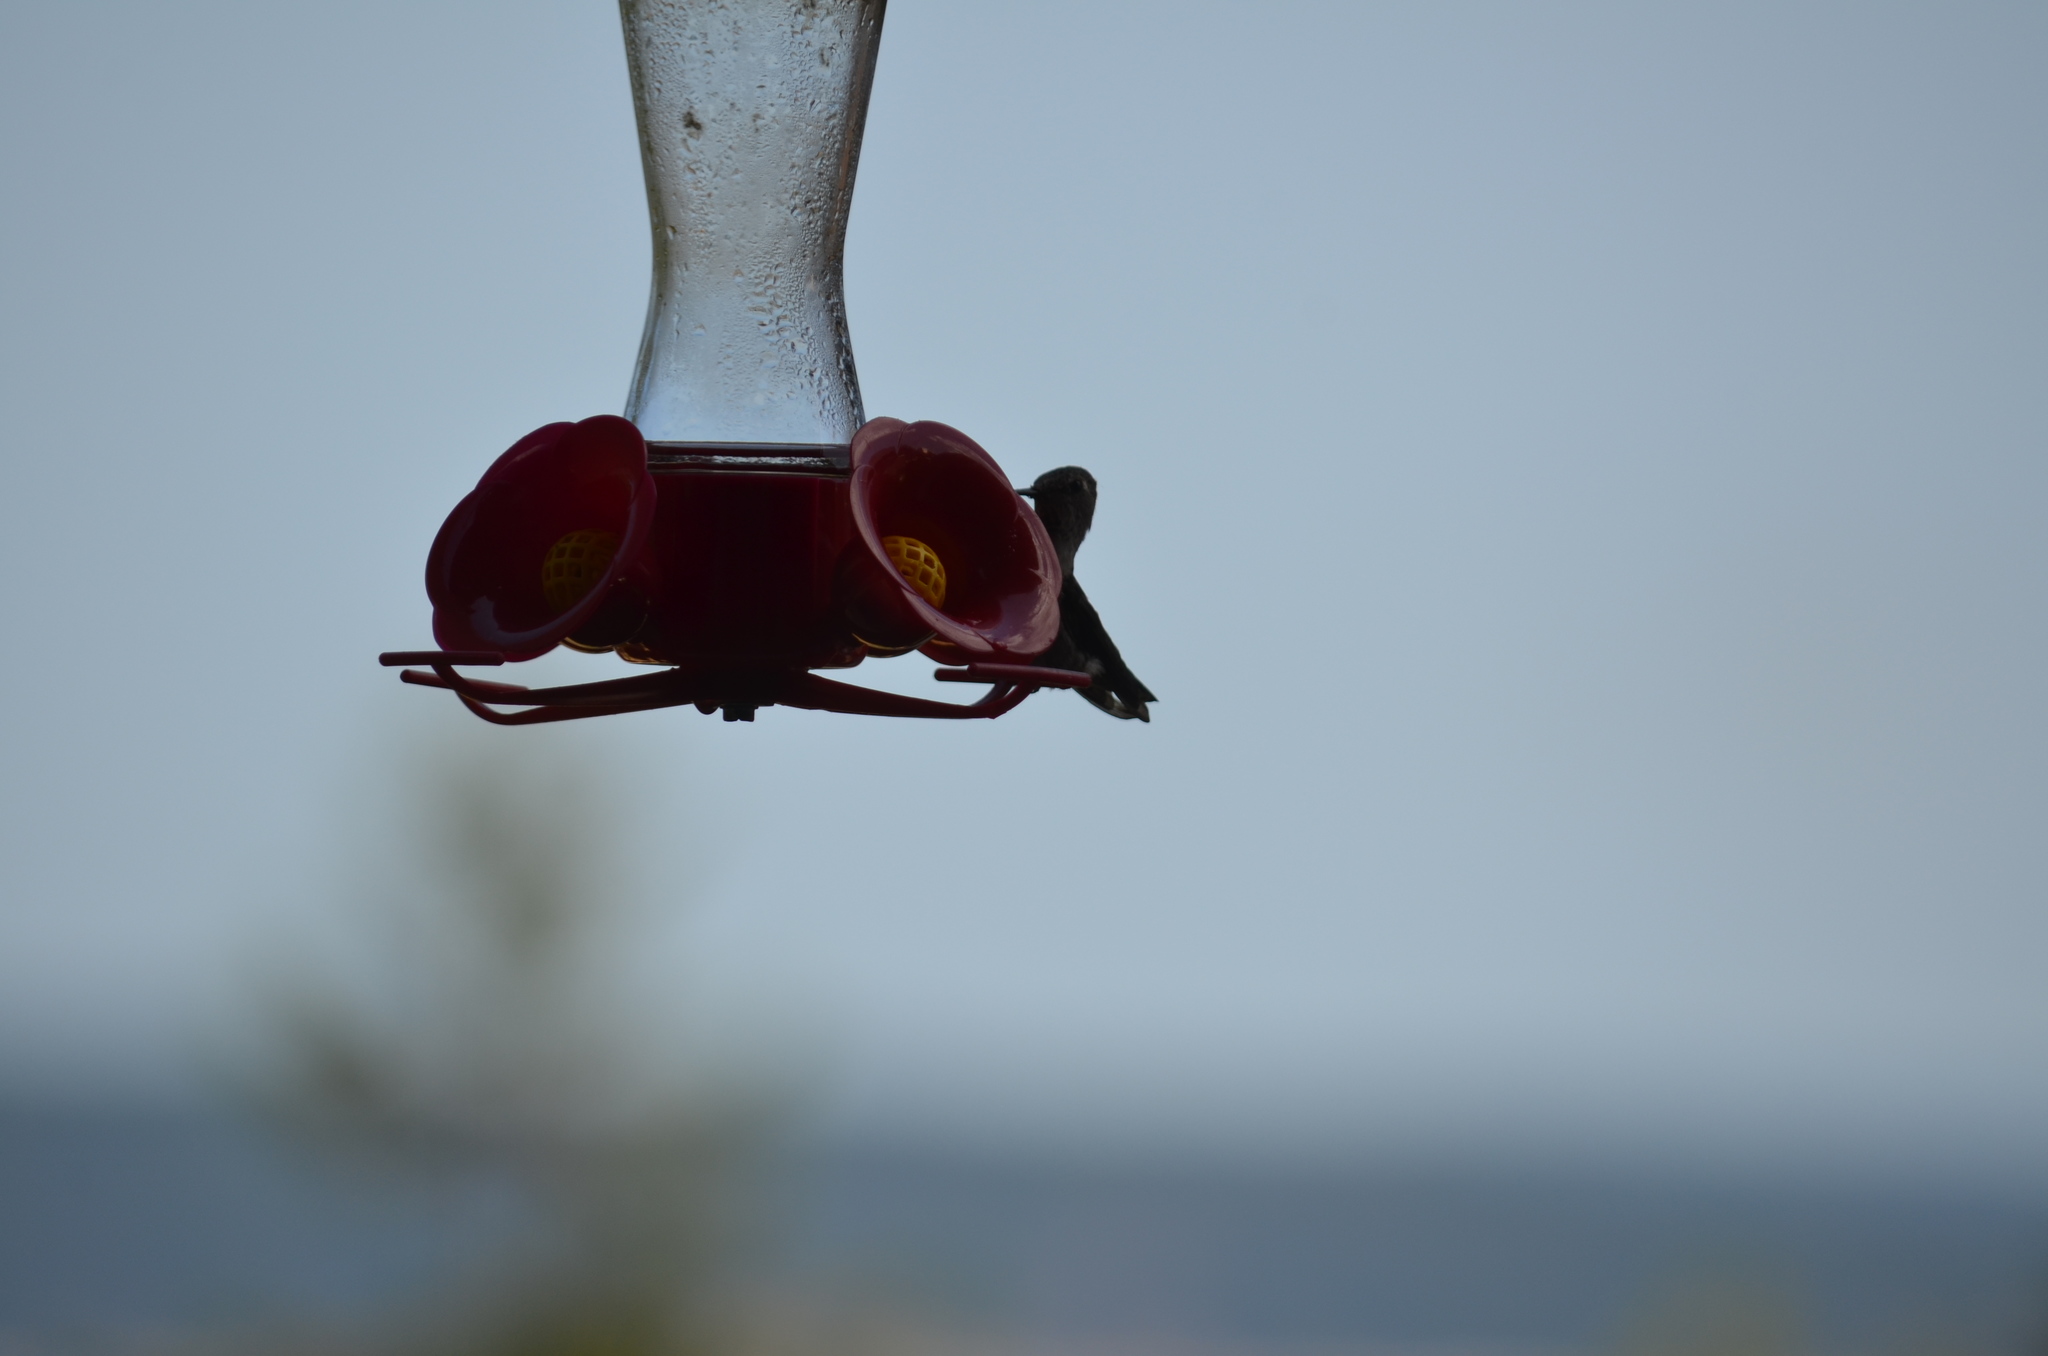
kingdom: Animalia
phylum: Chordata
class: Aves
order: Apodiformes
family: Trochilidae
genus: Calypte
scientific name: Calypte anna
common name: Anna's hummingbird
